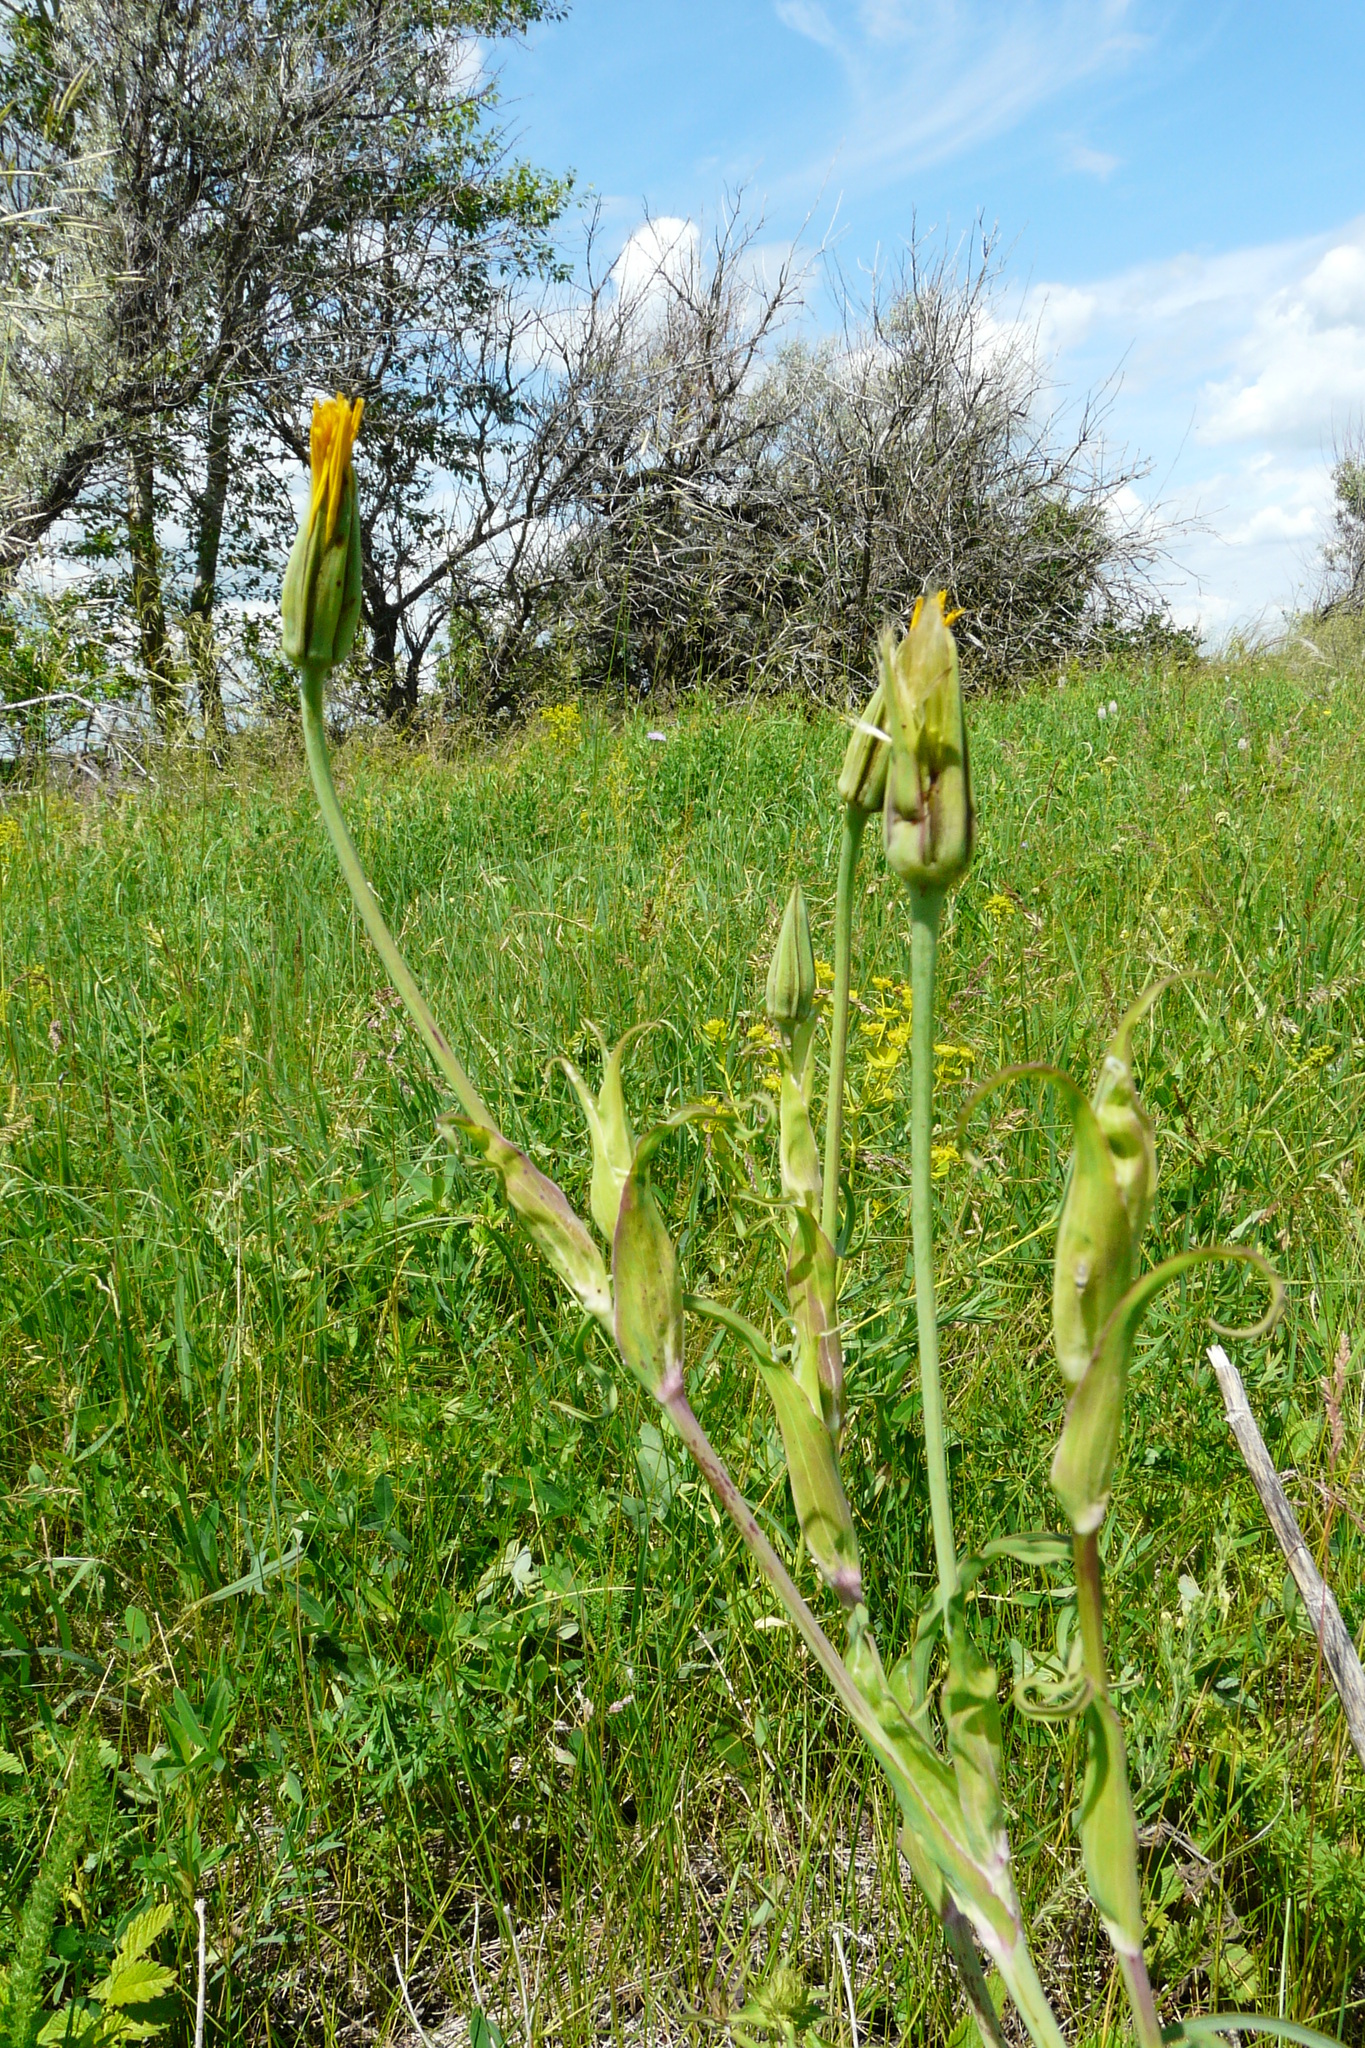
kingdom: Plantae
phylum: Tracheophyta
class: Magnoliopsida
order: Asterales
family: Asteraceae
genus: Tragopogon
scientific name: Tragopogon pratensis
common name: Goat's-beard
